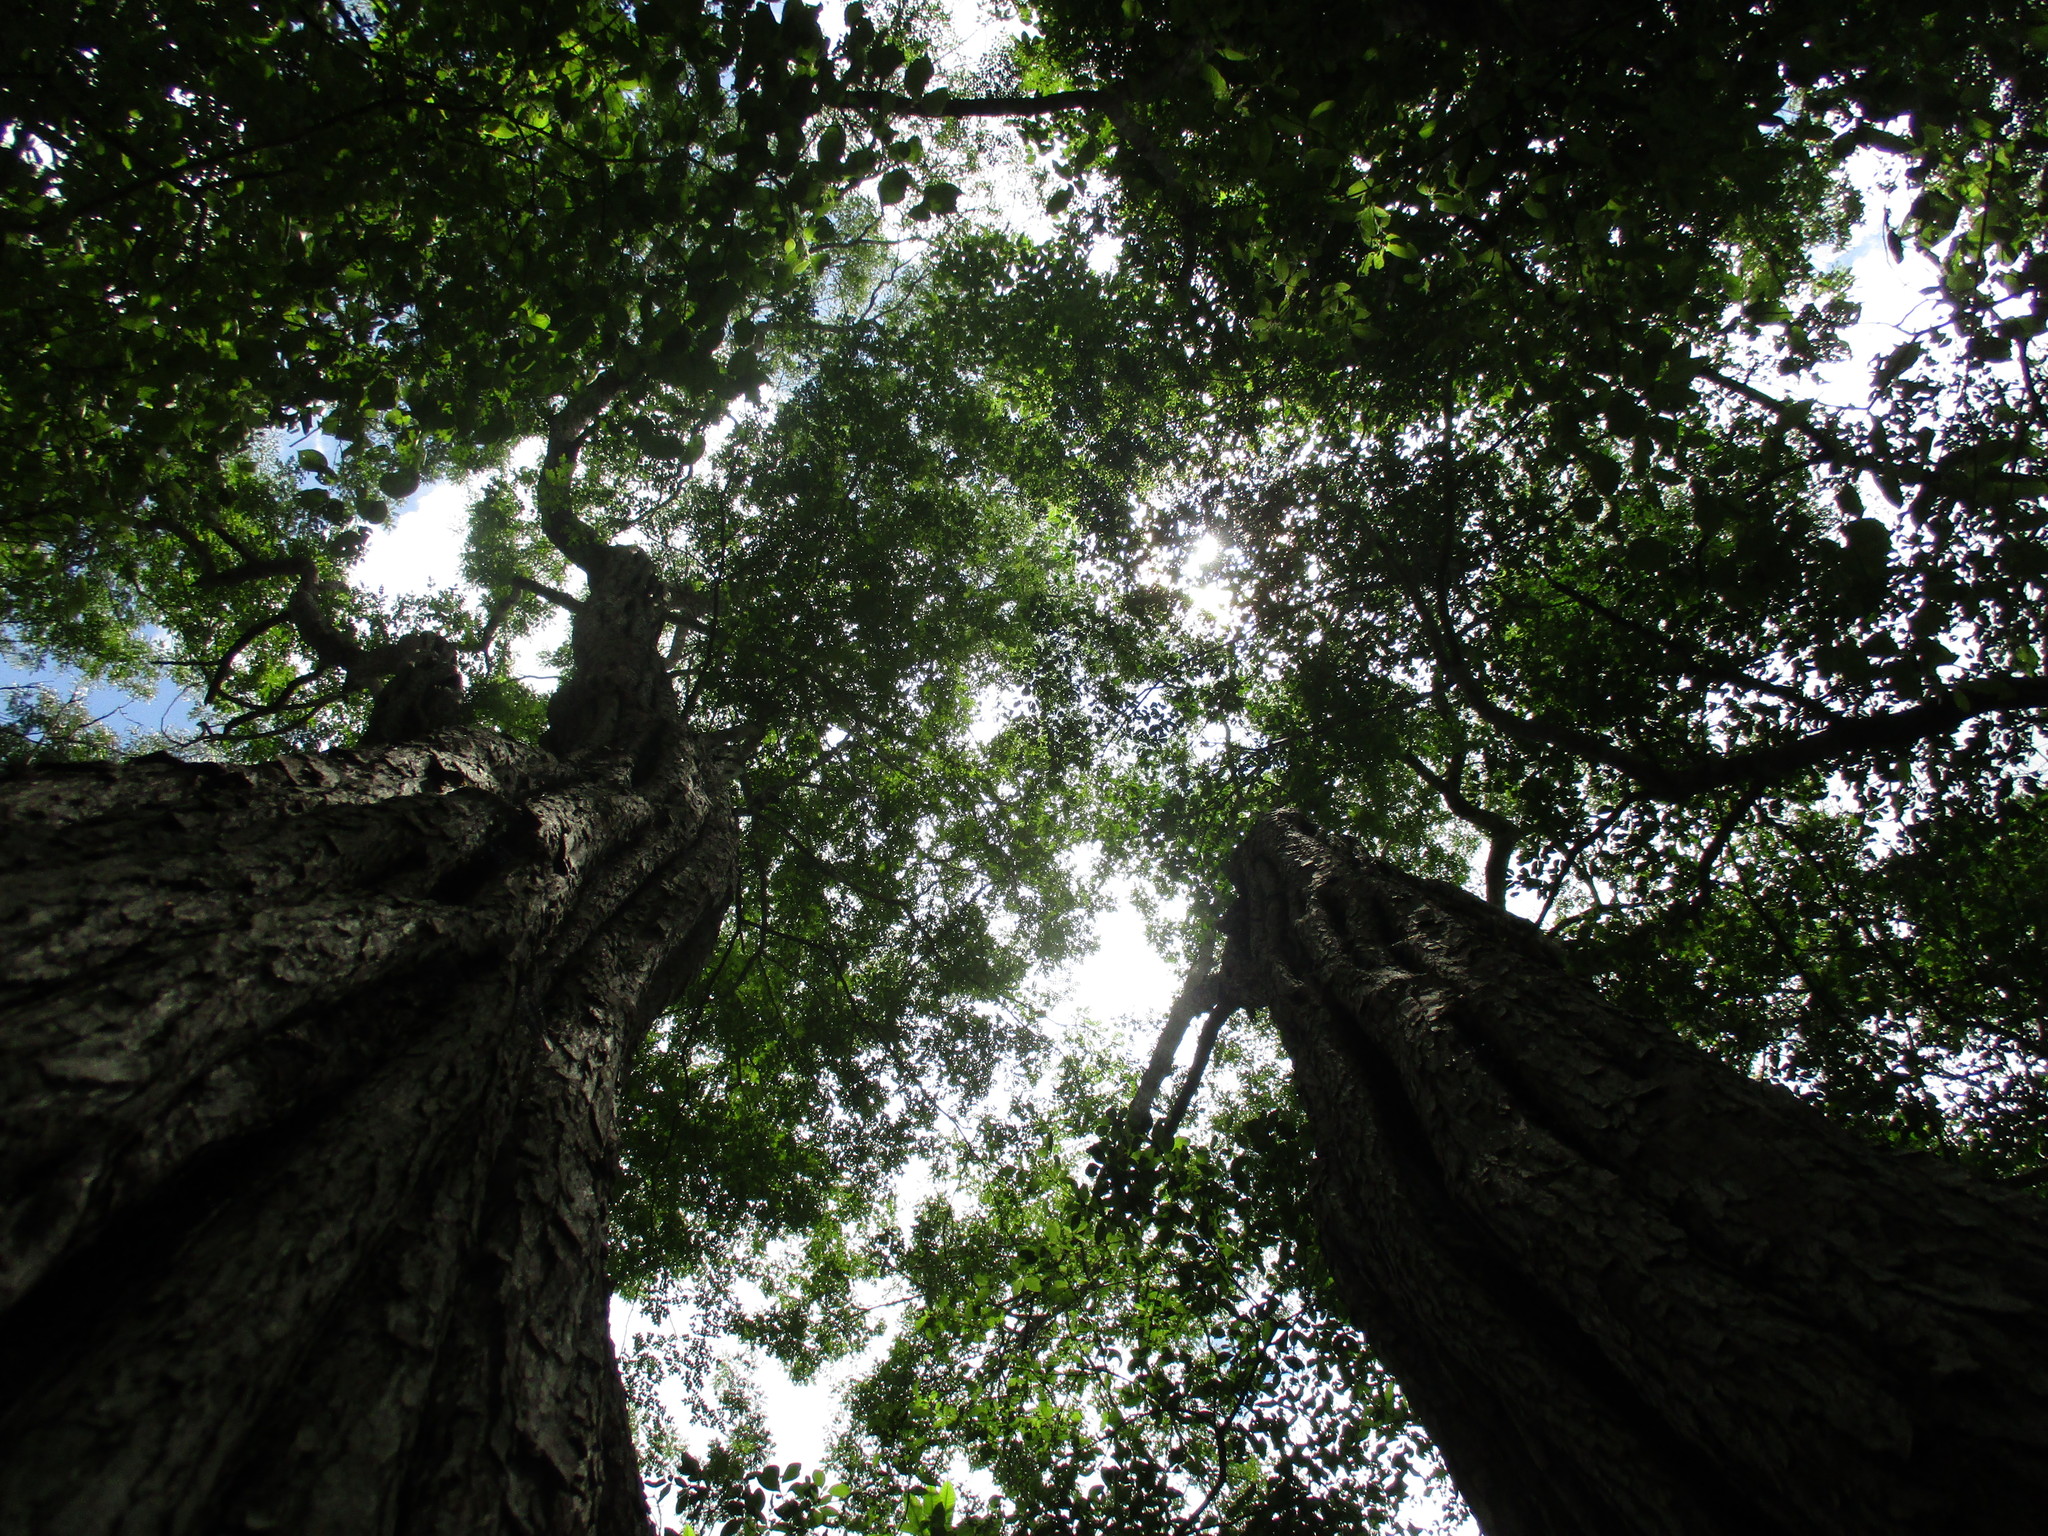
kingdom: Plantae
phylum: Tracheophyta
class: Magnoliopsida
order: Fabales
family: Fabaceae
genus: Cenostigma
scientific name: Cenostigma gaumeri
